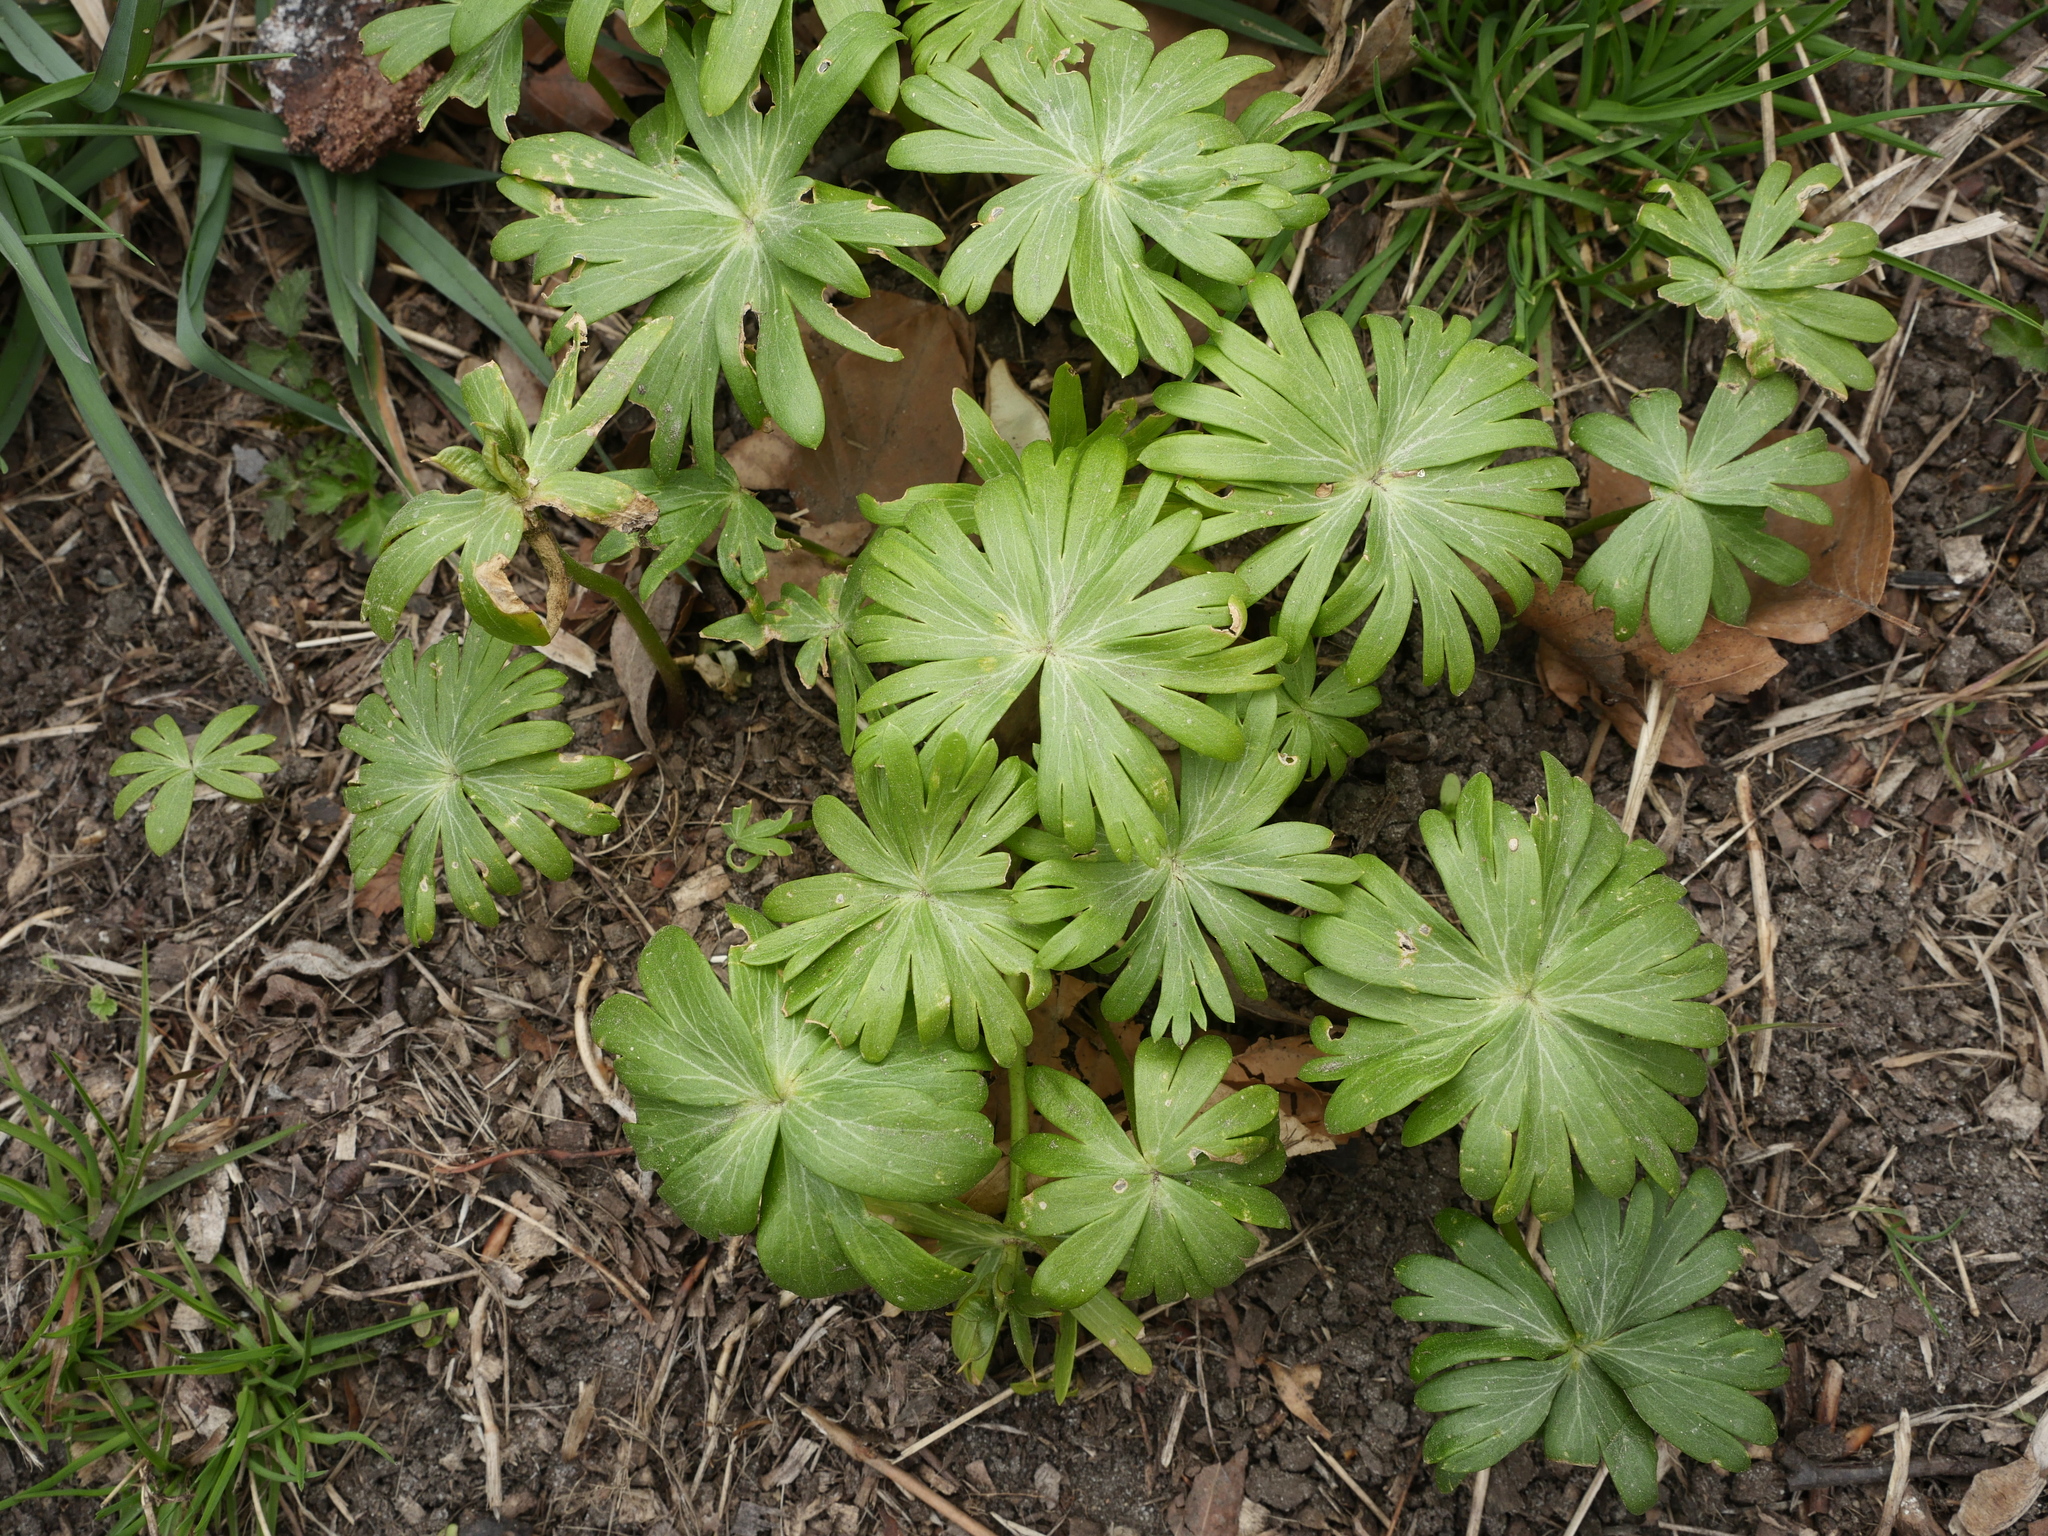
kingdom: Plantae
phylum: Tracheophyta
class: Magnoliopsida
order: Ranunculales
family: Ranunculaceae
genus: Eranthis
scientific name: Eranthis hyemalis
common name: Winter aconite
